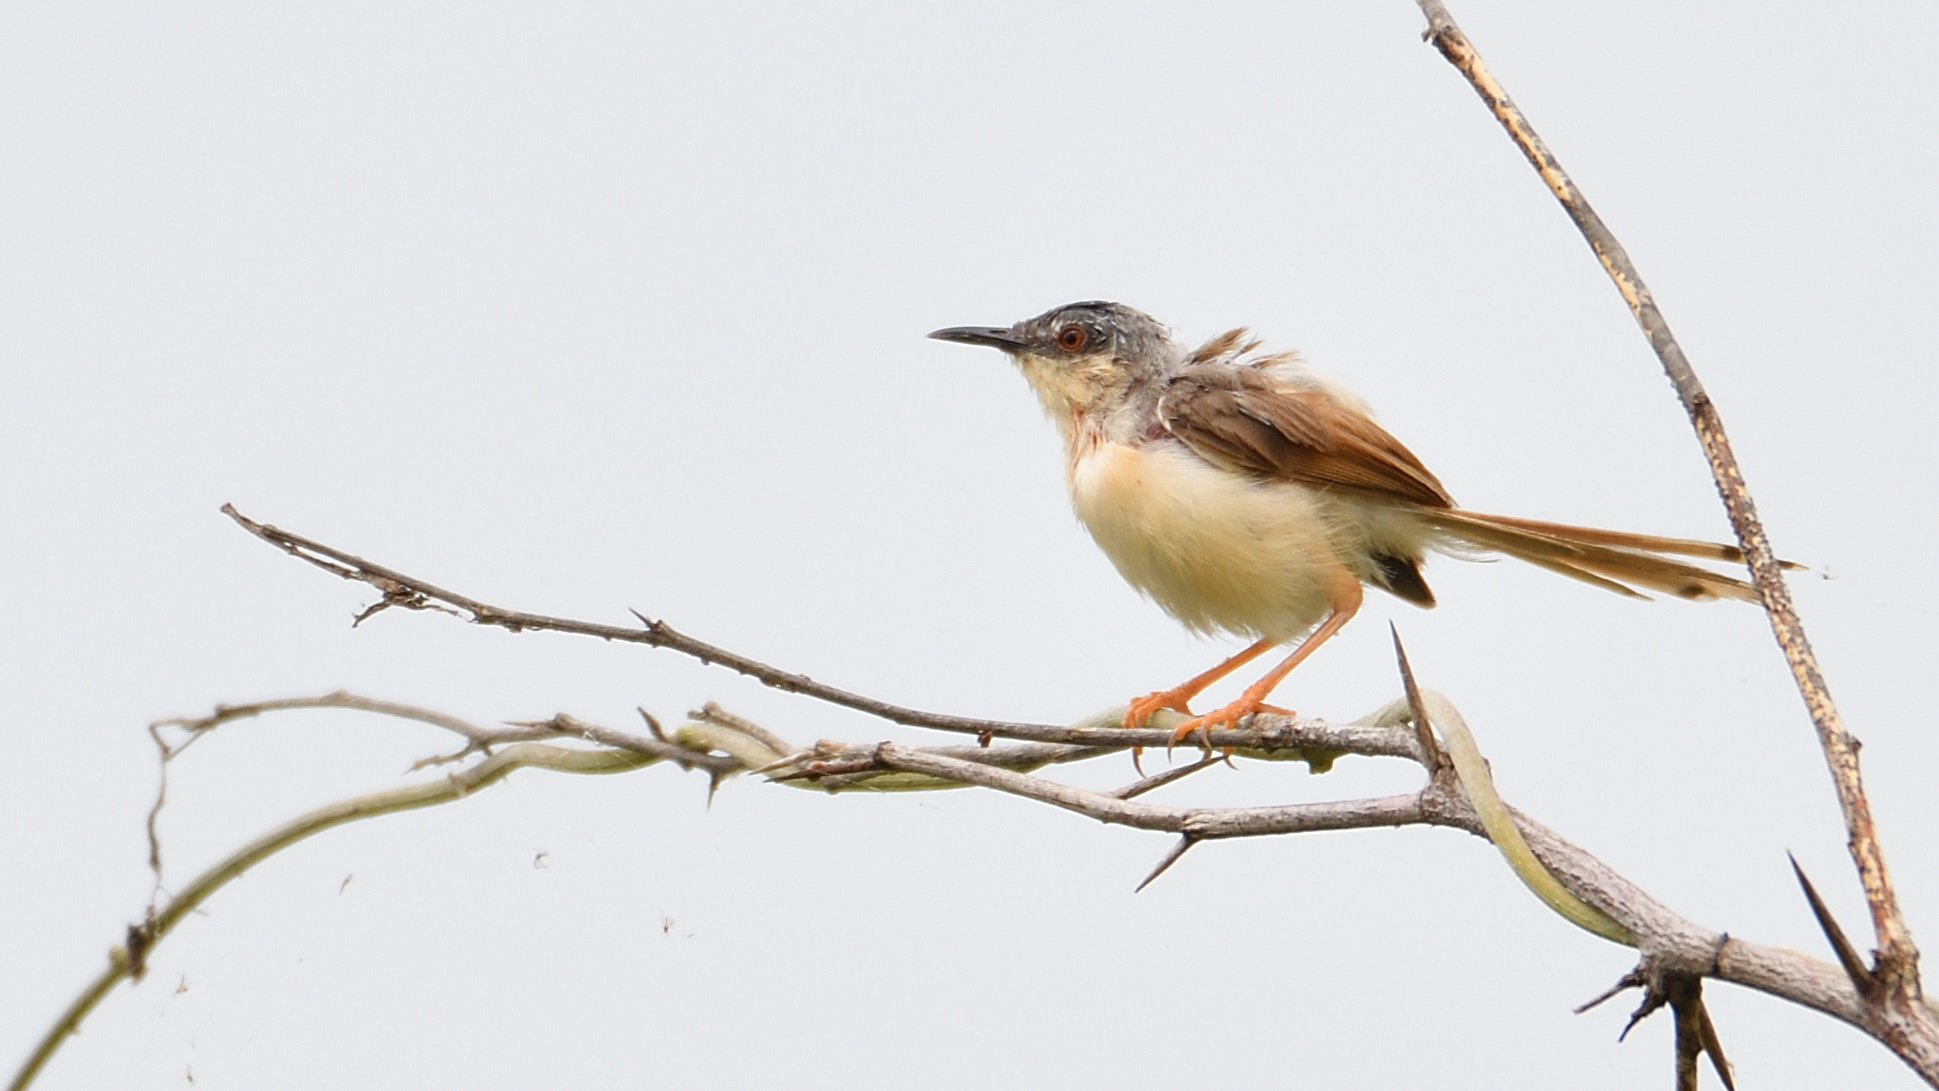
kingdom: Animalia
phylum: Chordata
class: Aves
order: Passeriformes
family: Cisticolidae
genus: Prinia
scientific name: Prinia socialis
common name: Ashy prinia
